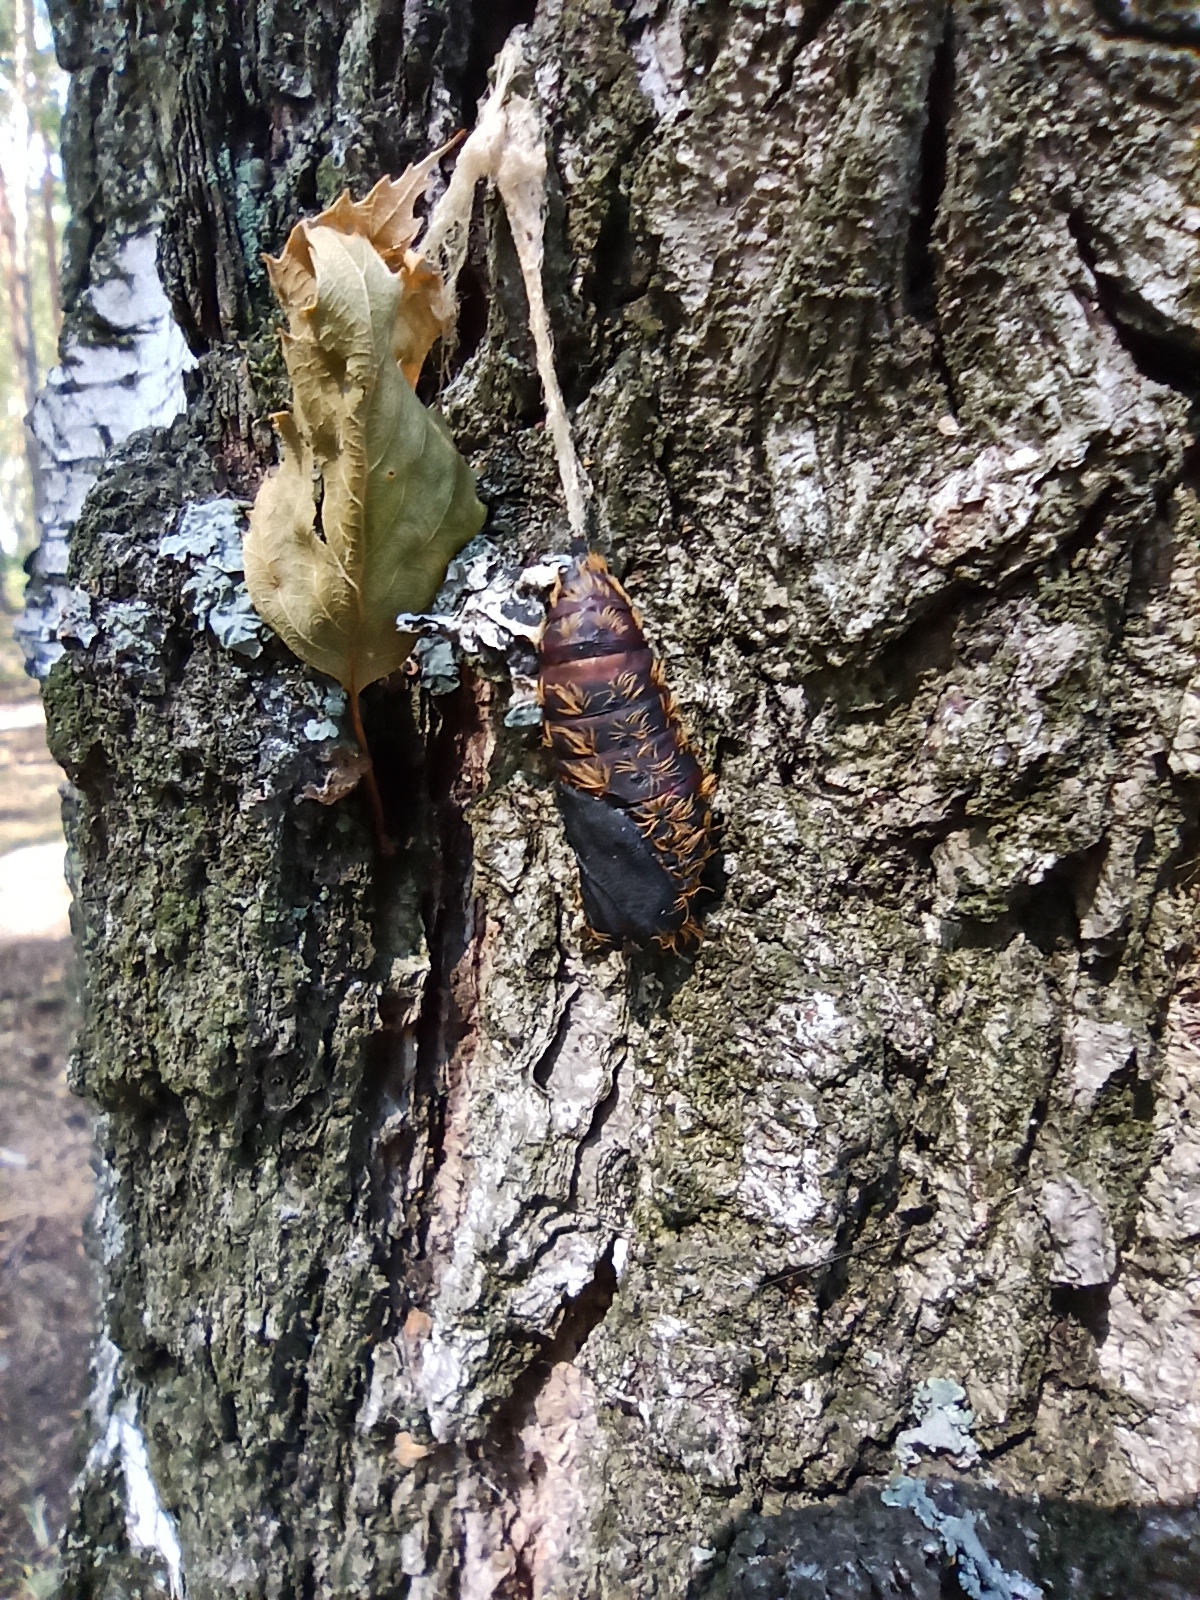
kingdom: Animalia
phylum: Arthropoda
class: Insecta
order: Lepidoptera
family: Erebidae
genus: Lymantria
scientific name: Lymantria dispar
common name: Gypsy moth
